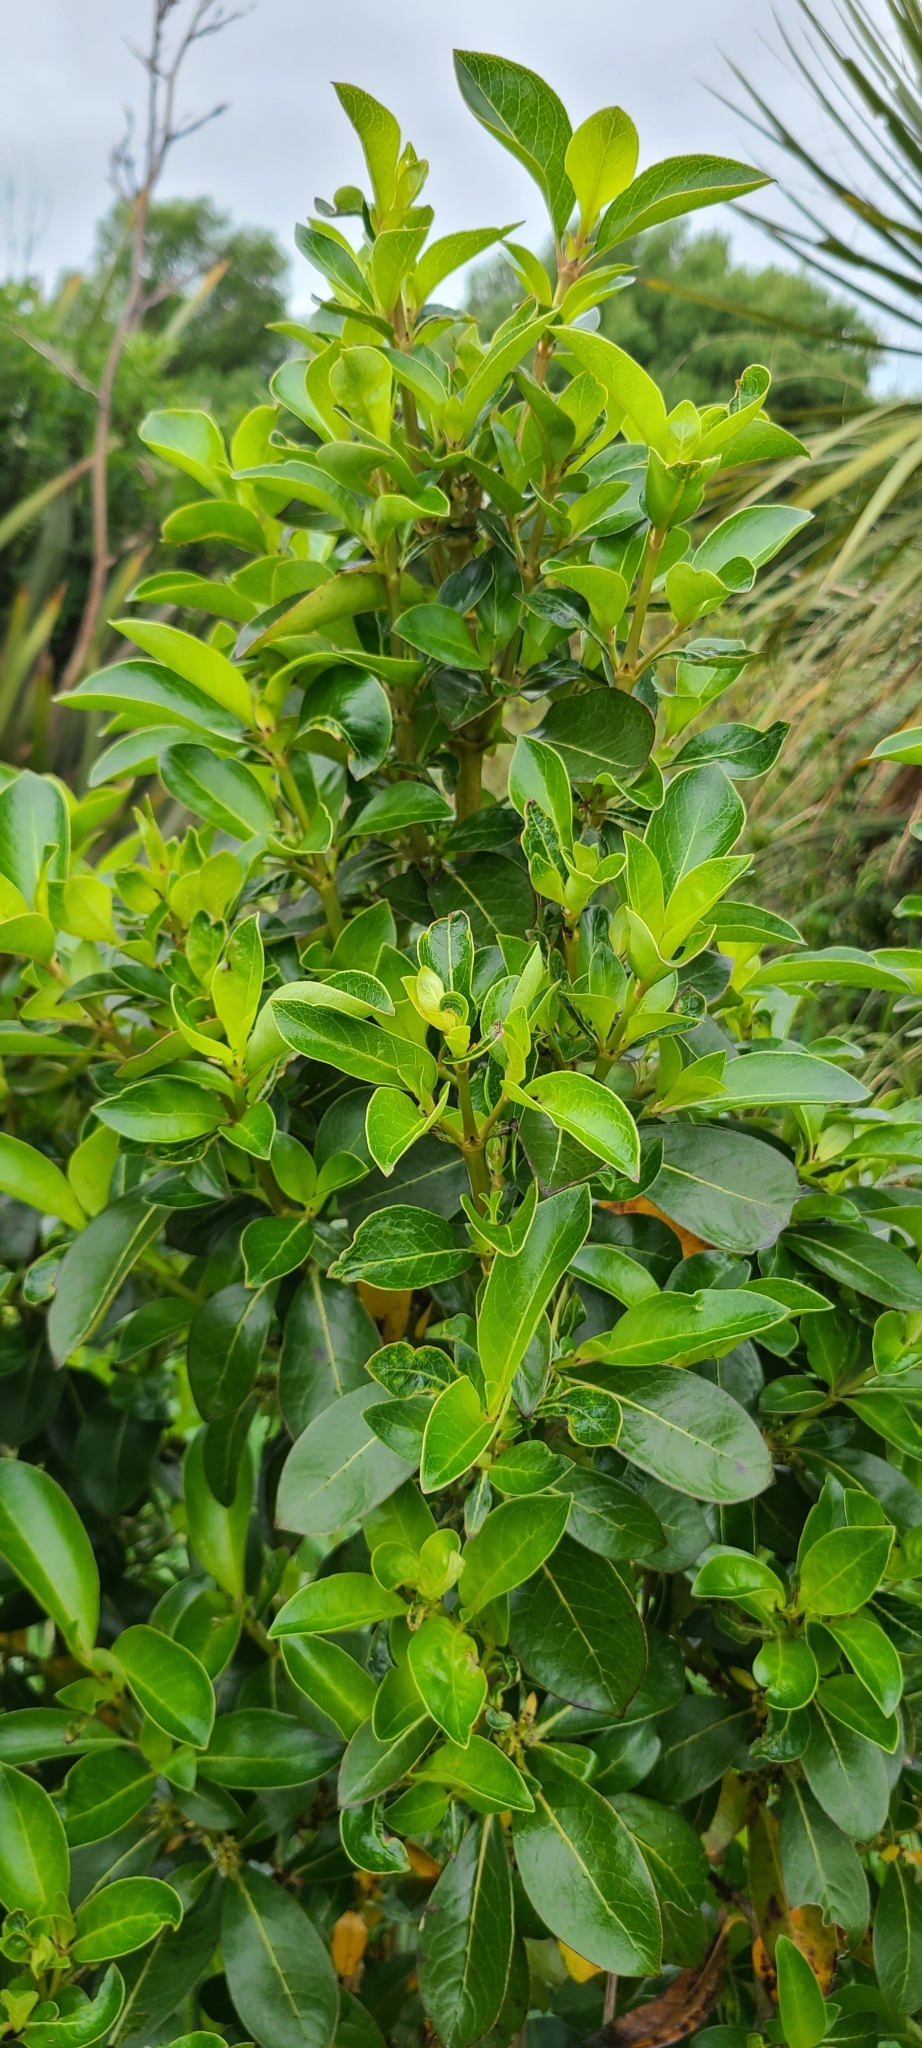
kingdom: Plantae
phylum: Tracheophyta
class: Magnoliopsida
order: Gentianales
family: Rubiaceae
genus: Coprosma
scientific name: Coprosma robusta
